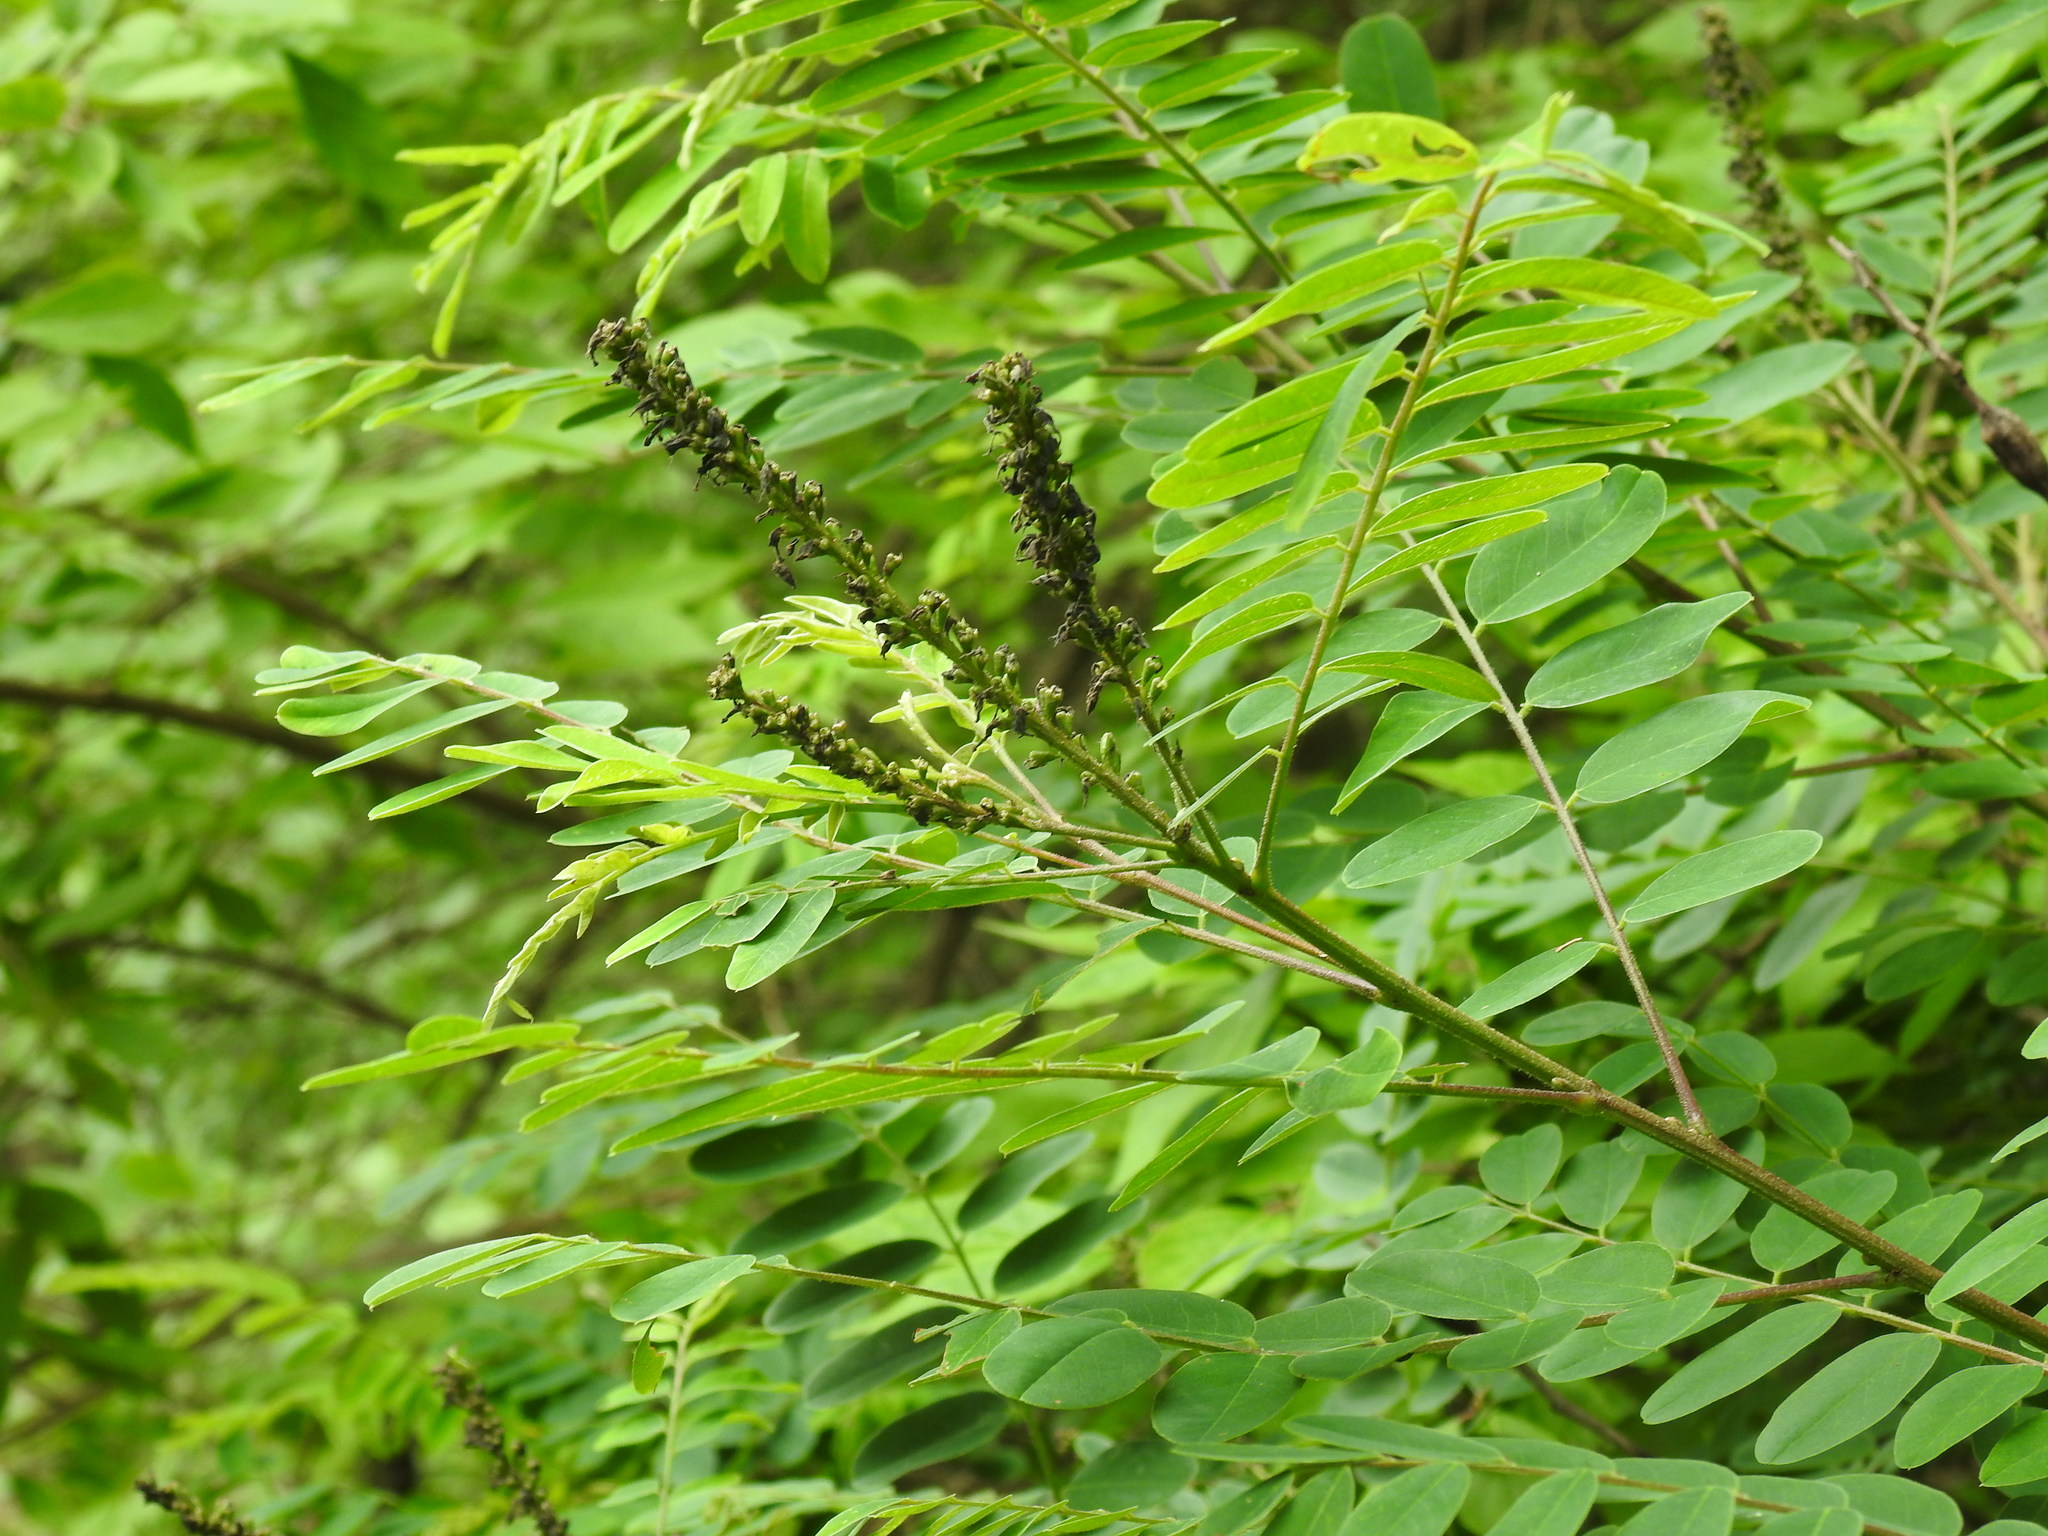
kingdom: Plantae
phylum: Tracheophyta
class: Magnoliopsida
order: Fabales
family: Fabaceae
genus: Amorpha
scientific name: Amorpha fruticosa
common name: False indigo
